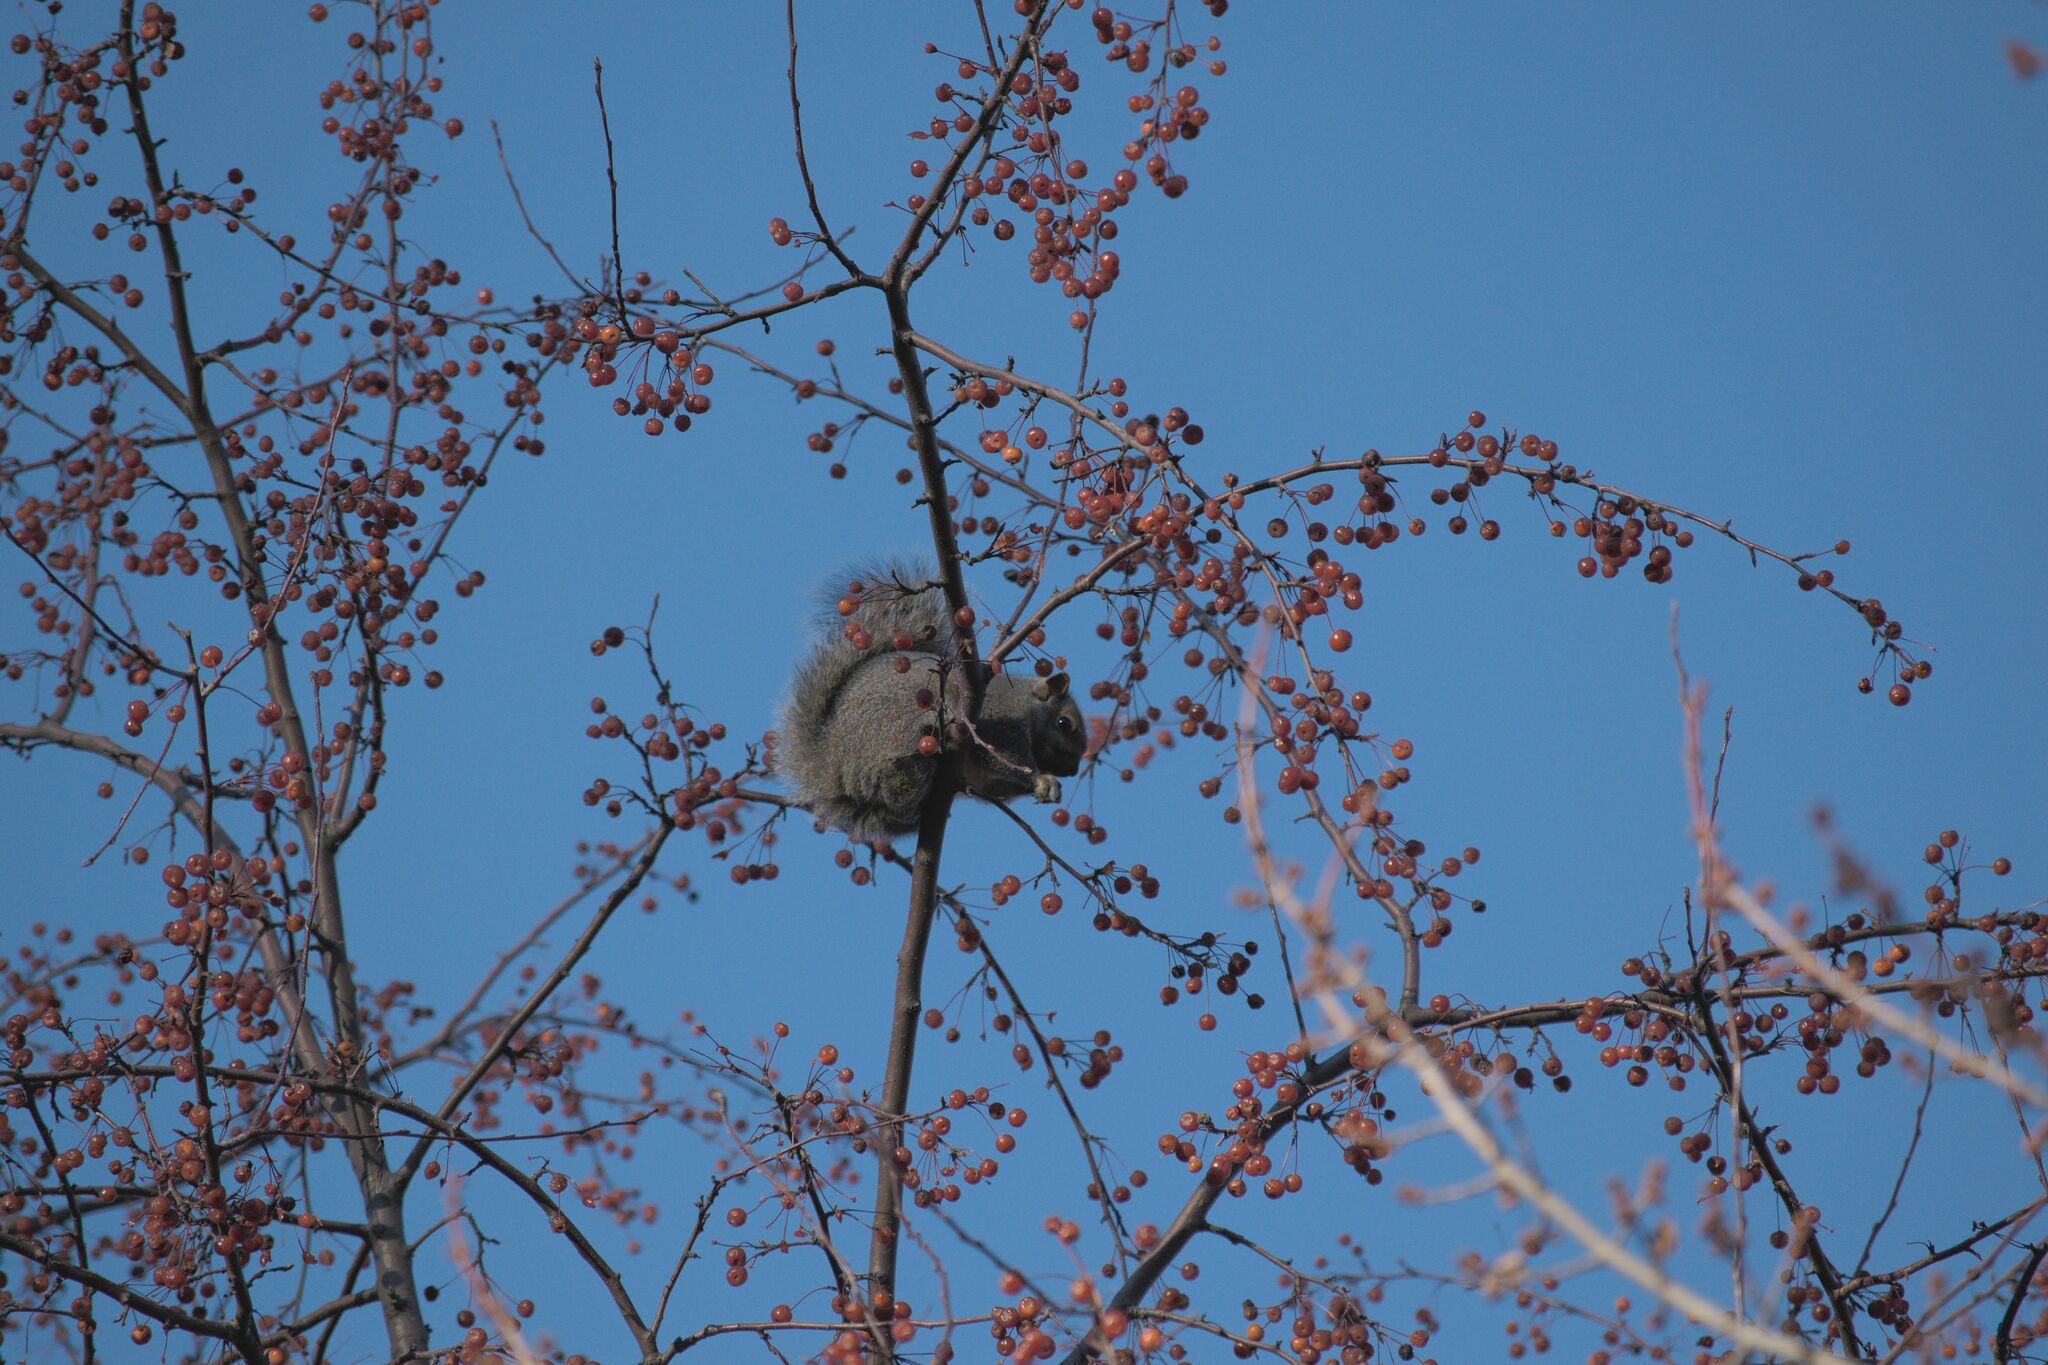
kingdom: Animalia
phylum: Chordata
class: Mammalia
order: Rodentia
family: Sciuridae
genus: Sciurus
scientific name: Sciurus carolinensis
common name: Eastern gray squirrel
